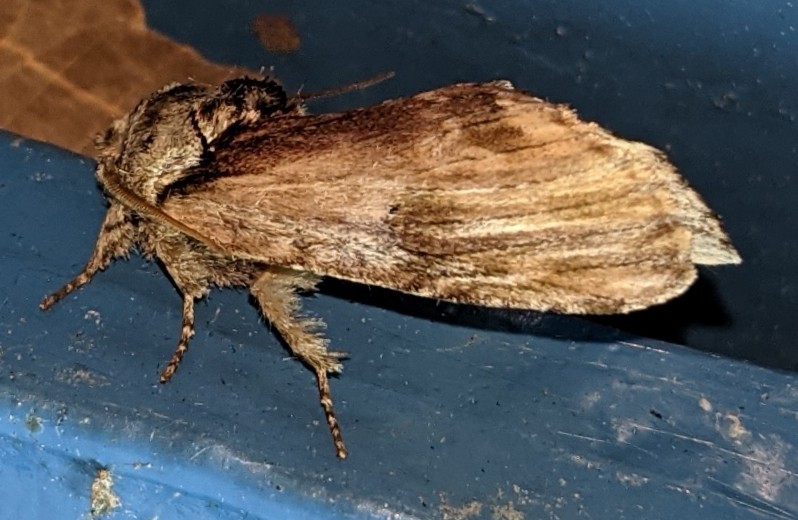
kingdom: Animalia
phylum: Arthropoda
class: Insecta
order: Lepidoptera
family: Notodontidae
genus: Schizura
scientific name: Schizura
